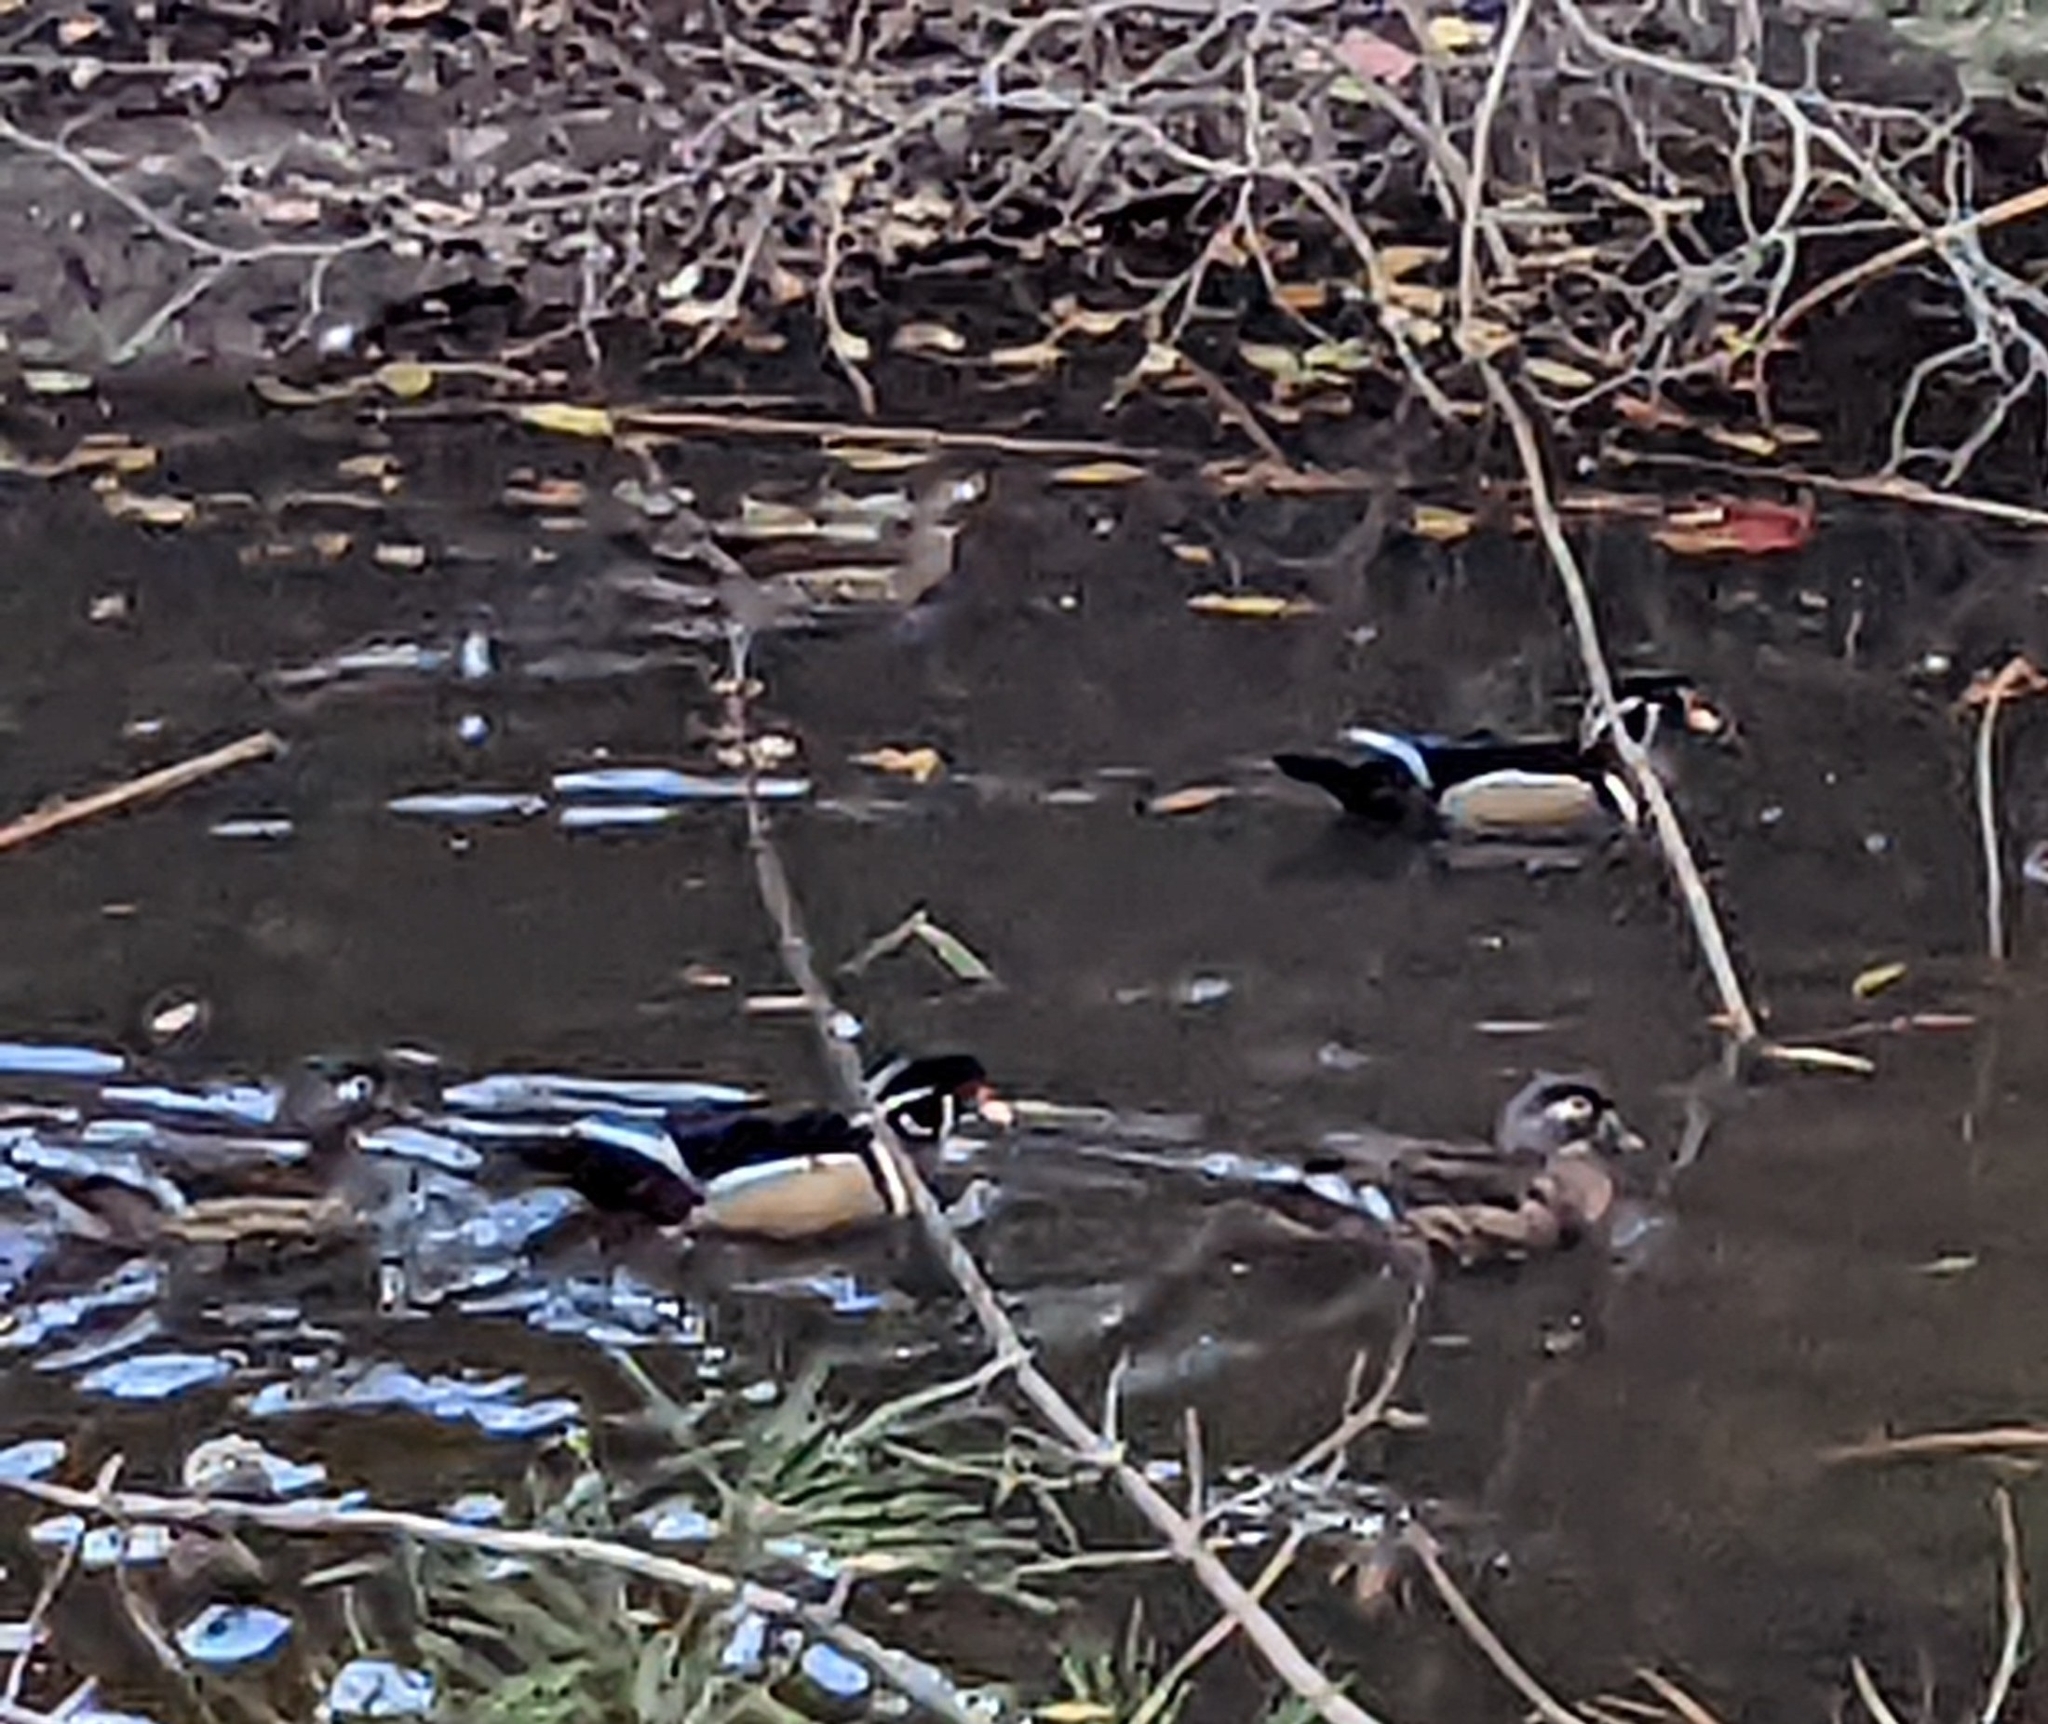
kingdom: Animalia
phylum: Chordata
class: Aves
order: Anseriformes
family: Anatidae
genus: Aix
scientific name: Aix sponsa
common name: Wood duck
